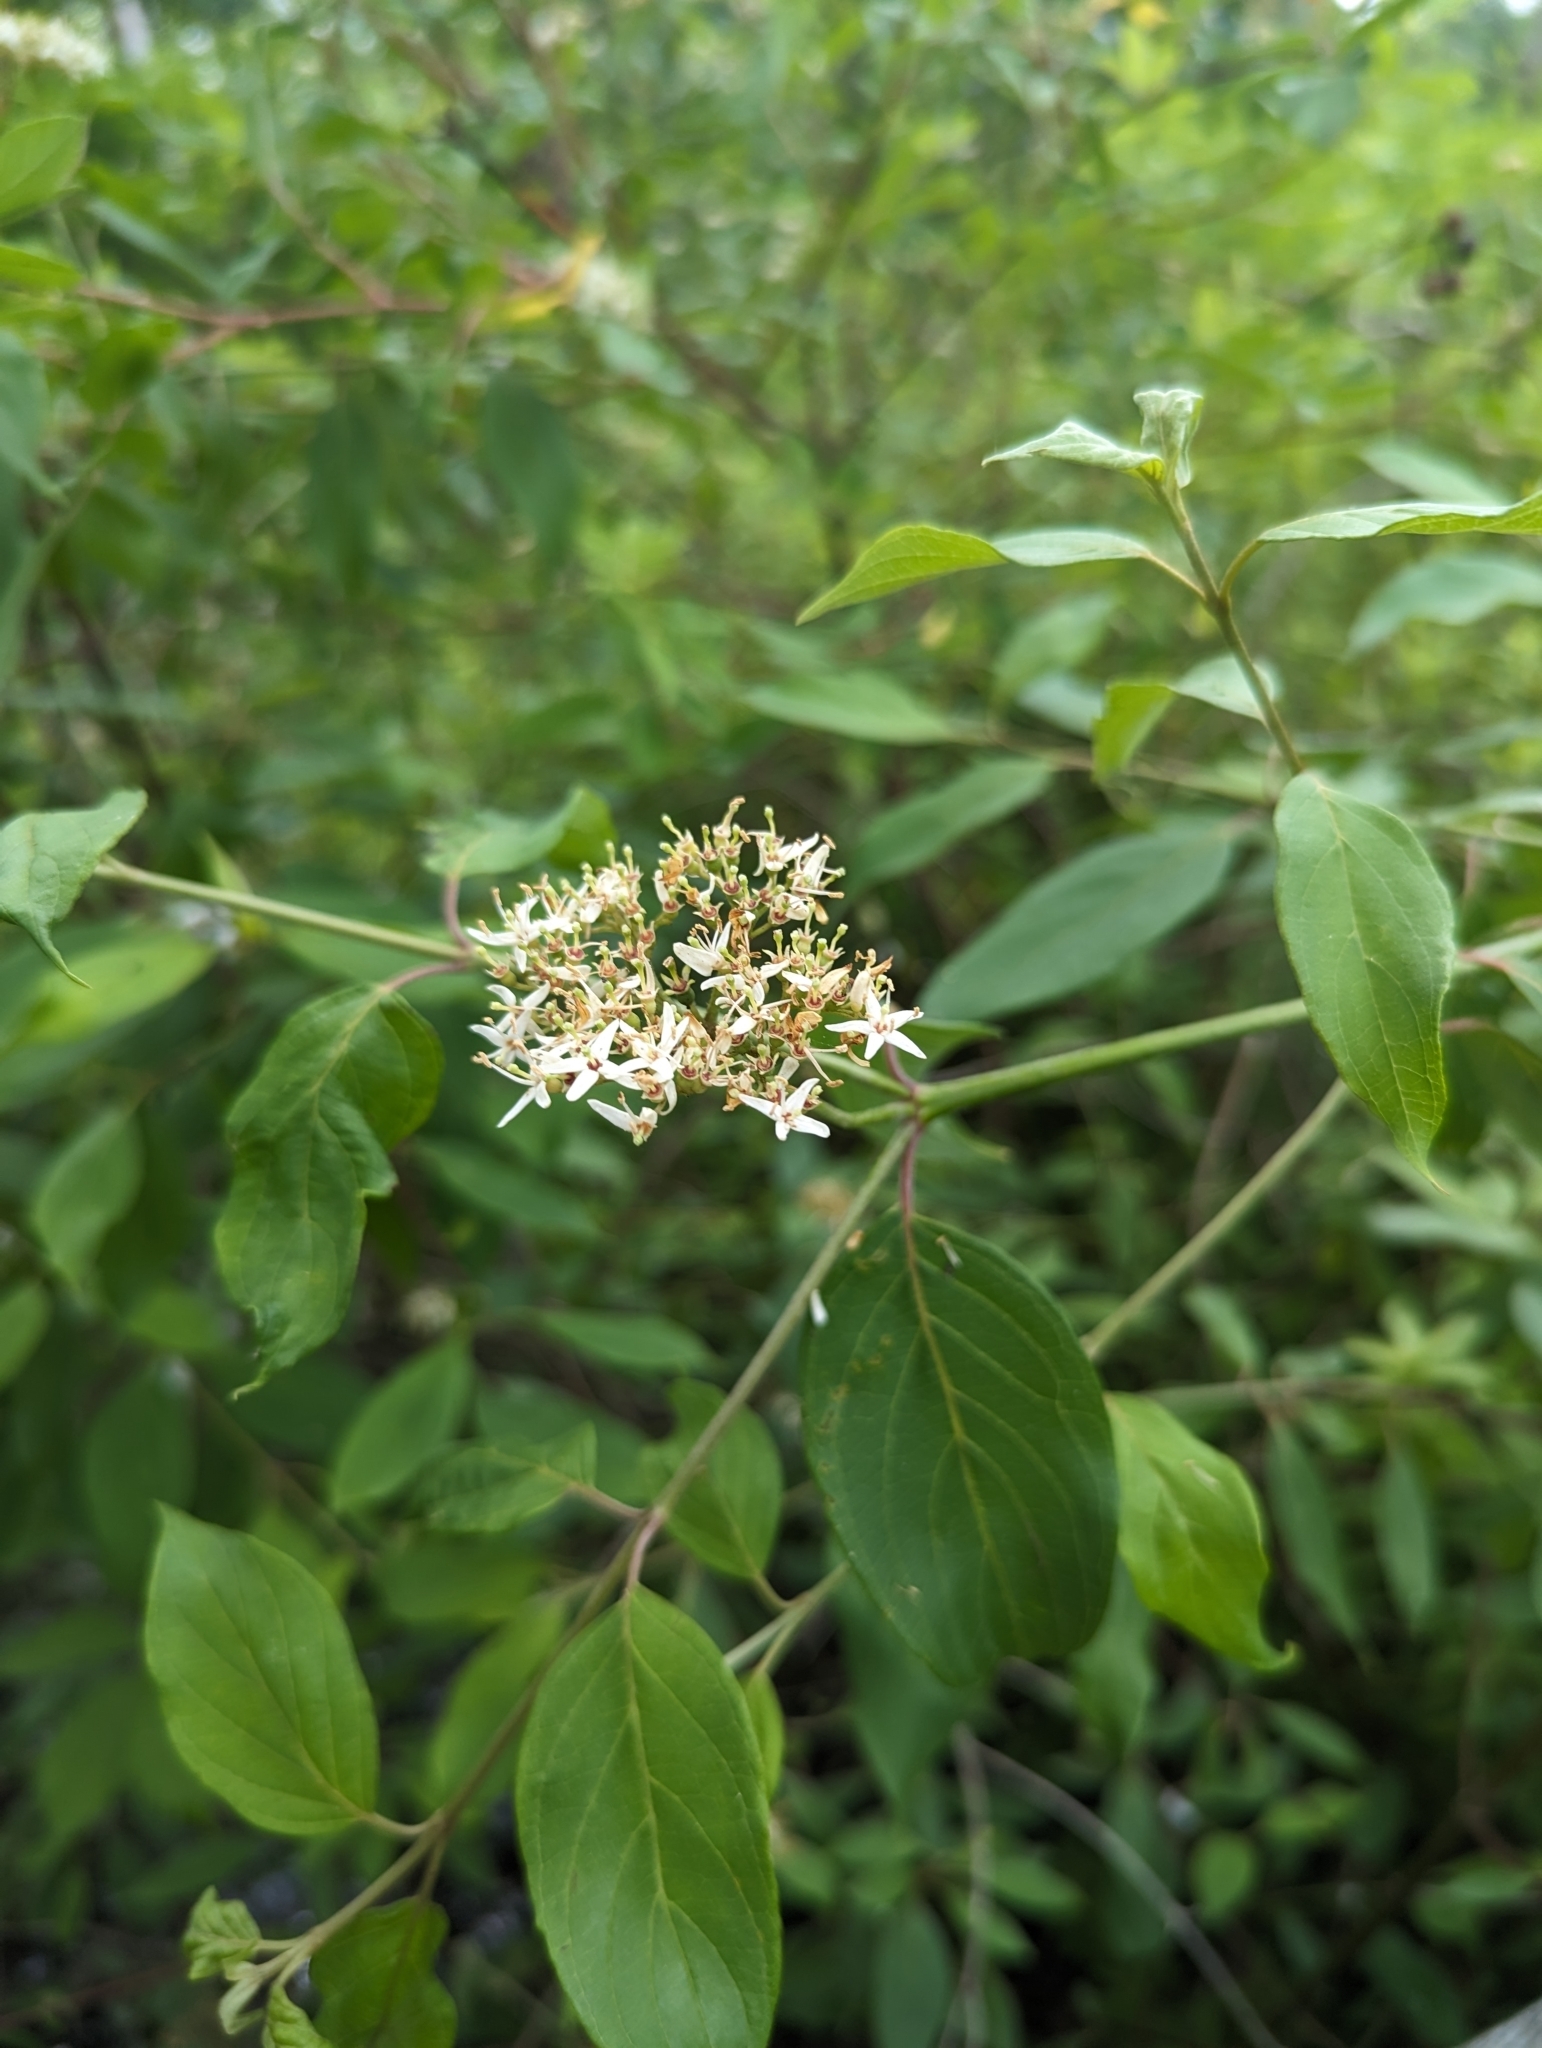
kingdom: Plantae
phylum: Tracheophyta
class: Magnoliopsida
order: Cornales
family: Cornaceae
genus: Cornus
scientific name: Cornus amomum
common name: Silky dogwood
